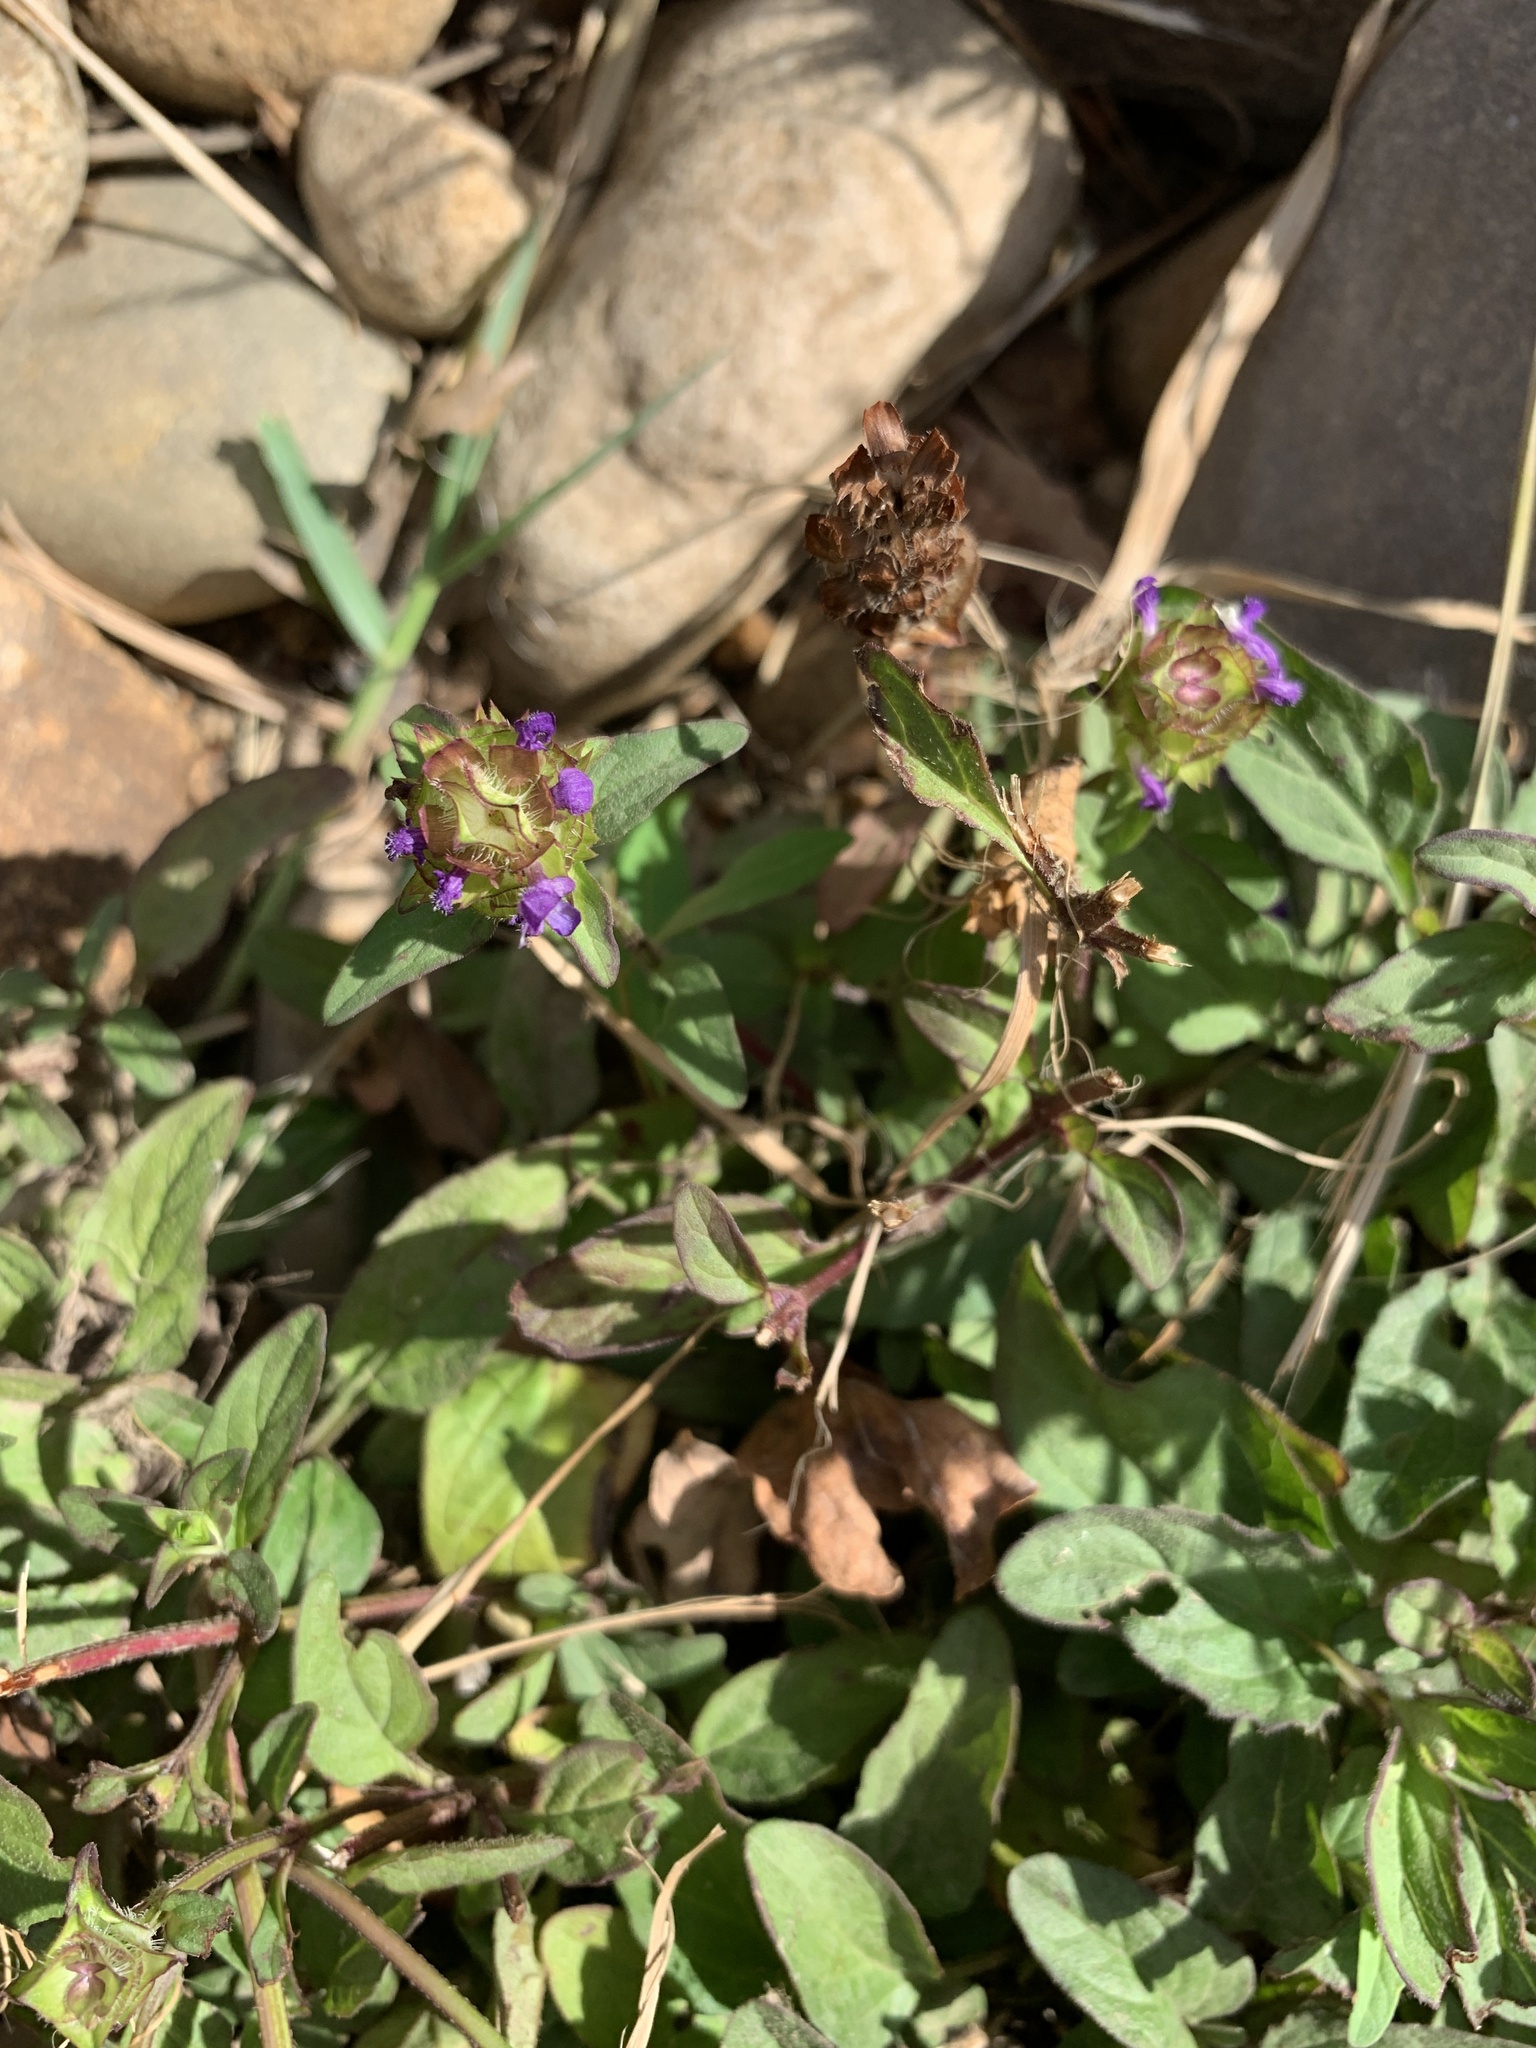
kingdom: Plantae
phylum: Tracheophyta
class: Magnoliopsida
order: Lamiales
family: Lamiaceae
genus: Prunella
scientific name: Prunella vulgaris
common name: Heal-all
